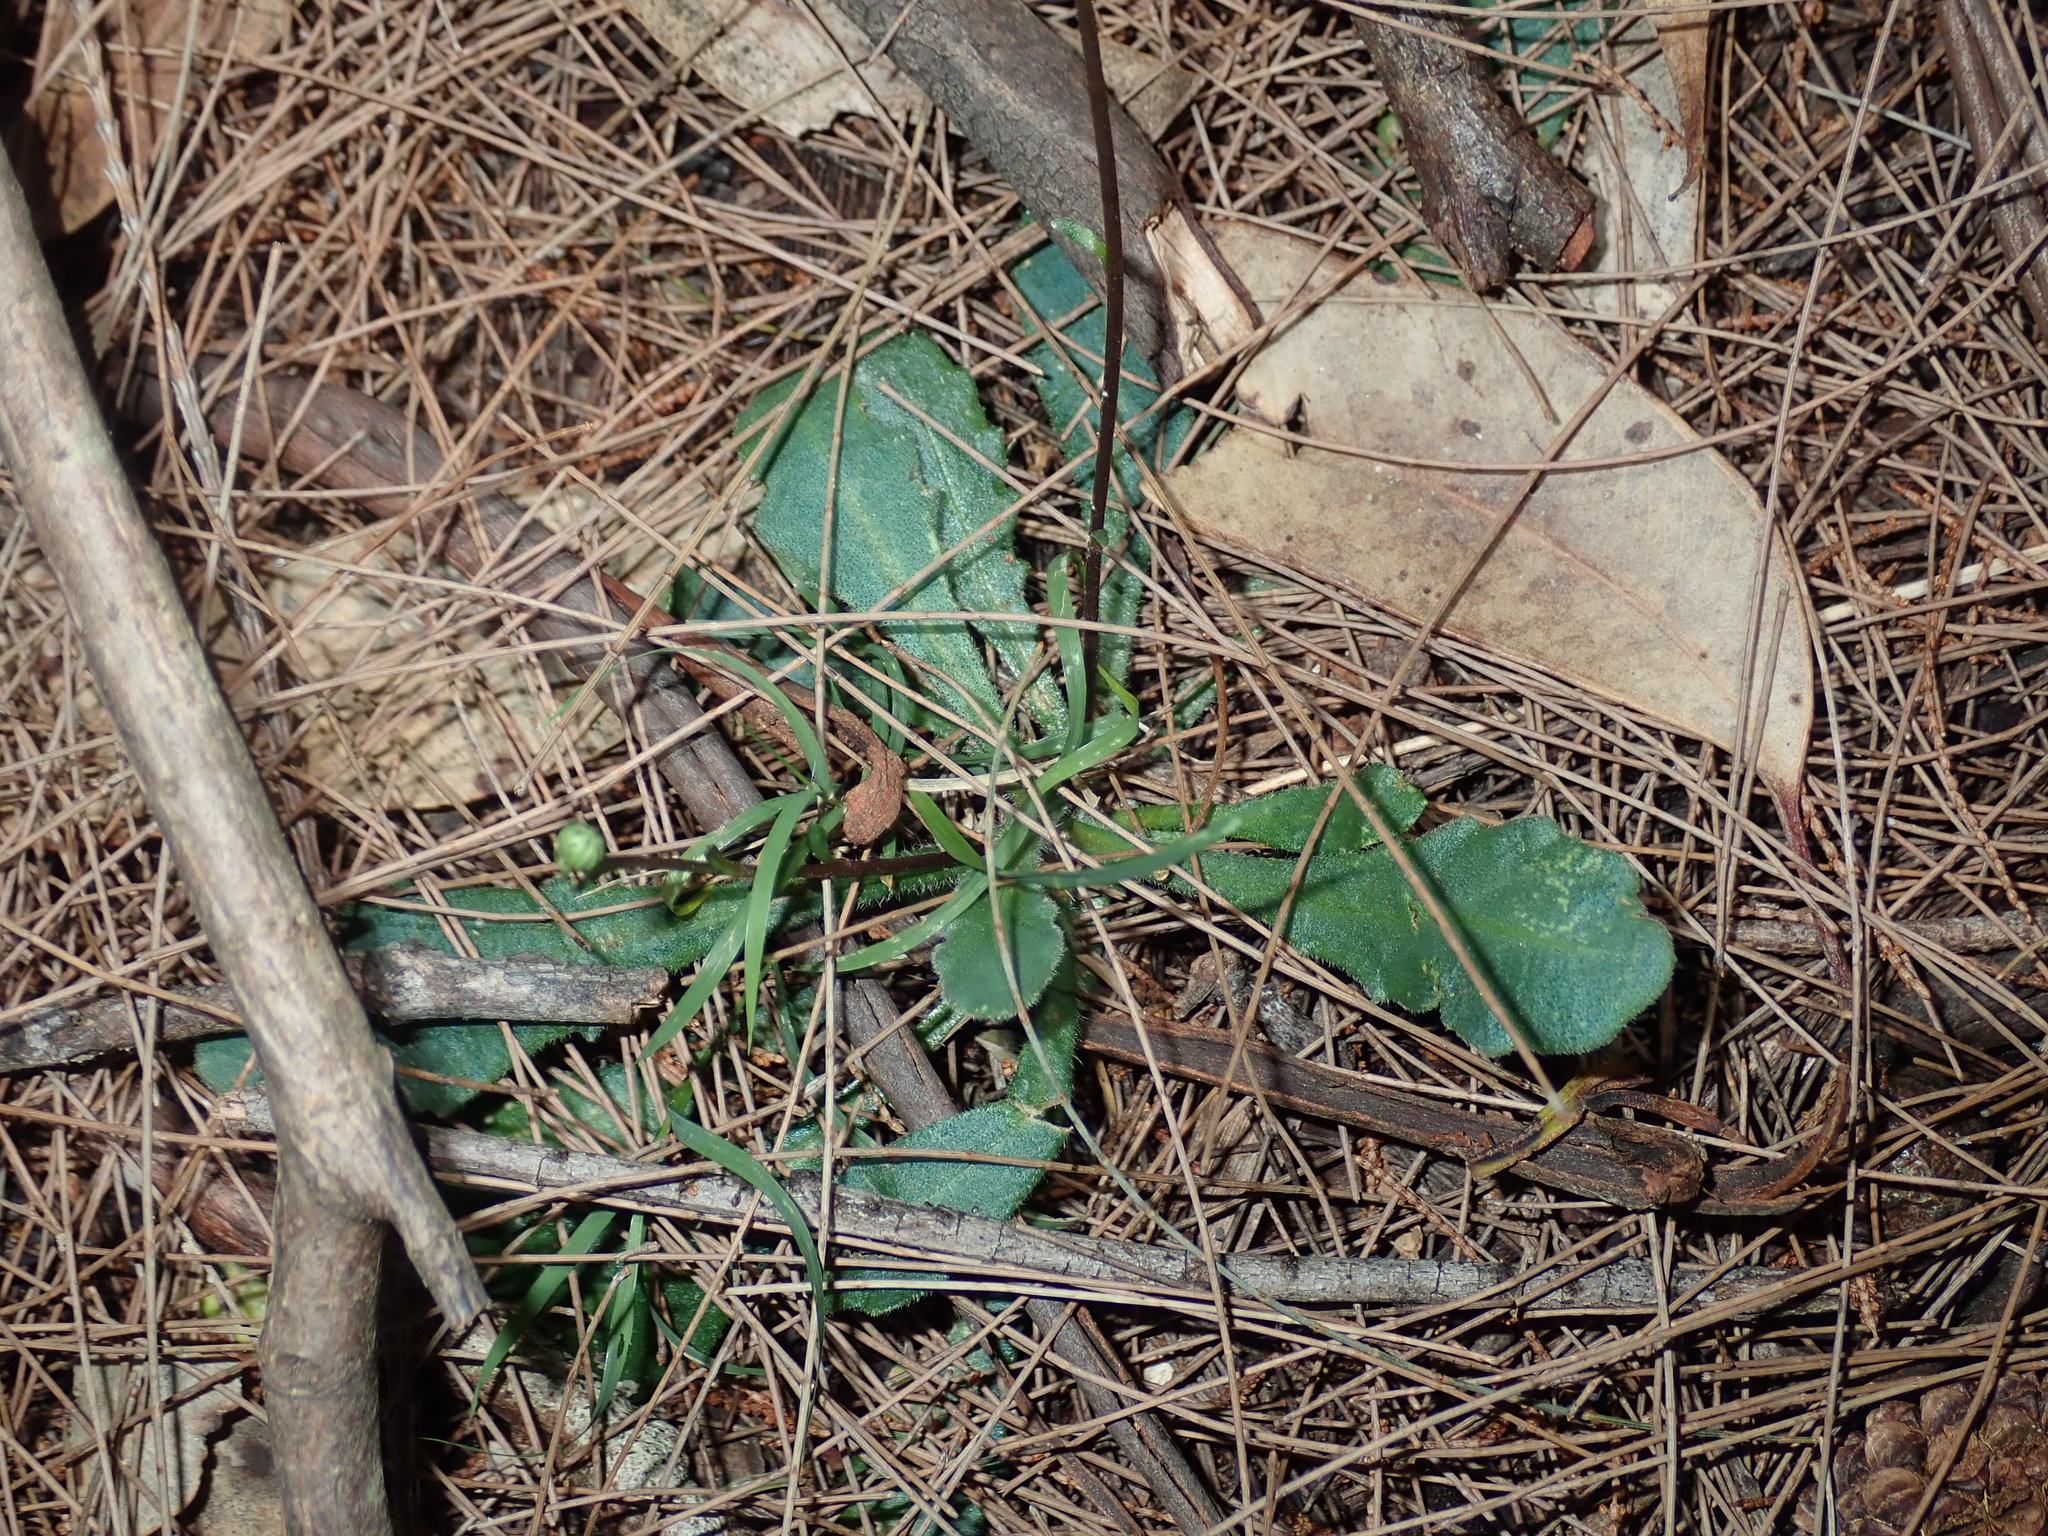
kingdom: Plantae
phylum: Tracheophyta
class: Magnoliopsida
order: Asterales
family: Asteraceae
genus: Lagenophora
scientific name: Lagenophora sublyrata ter
